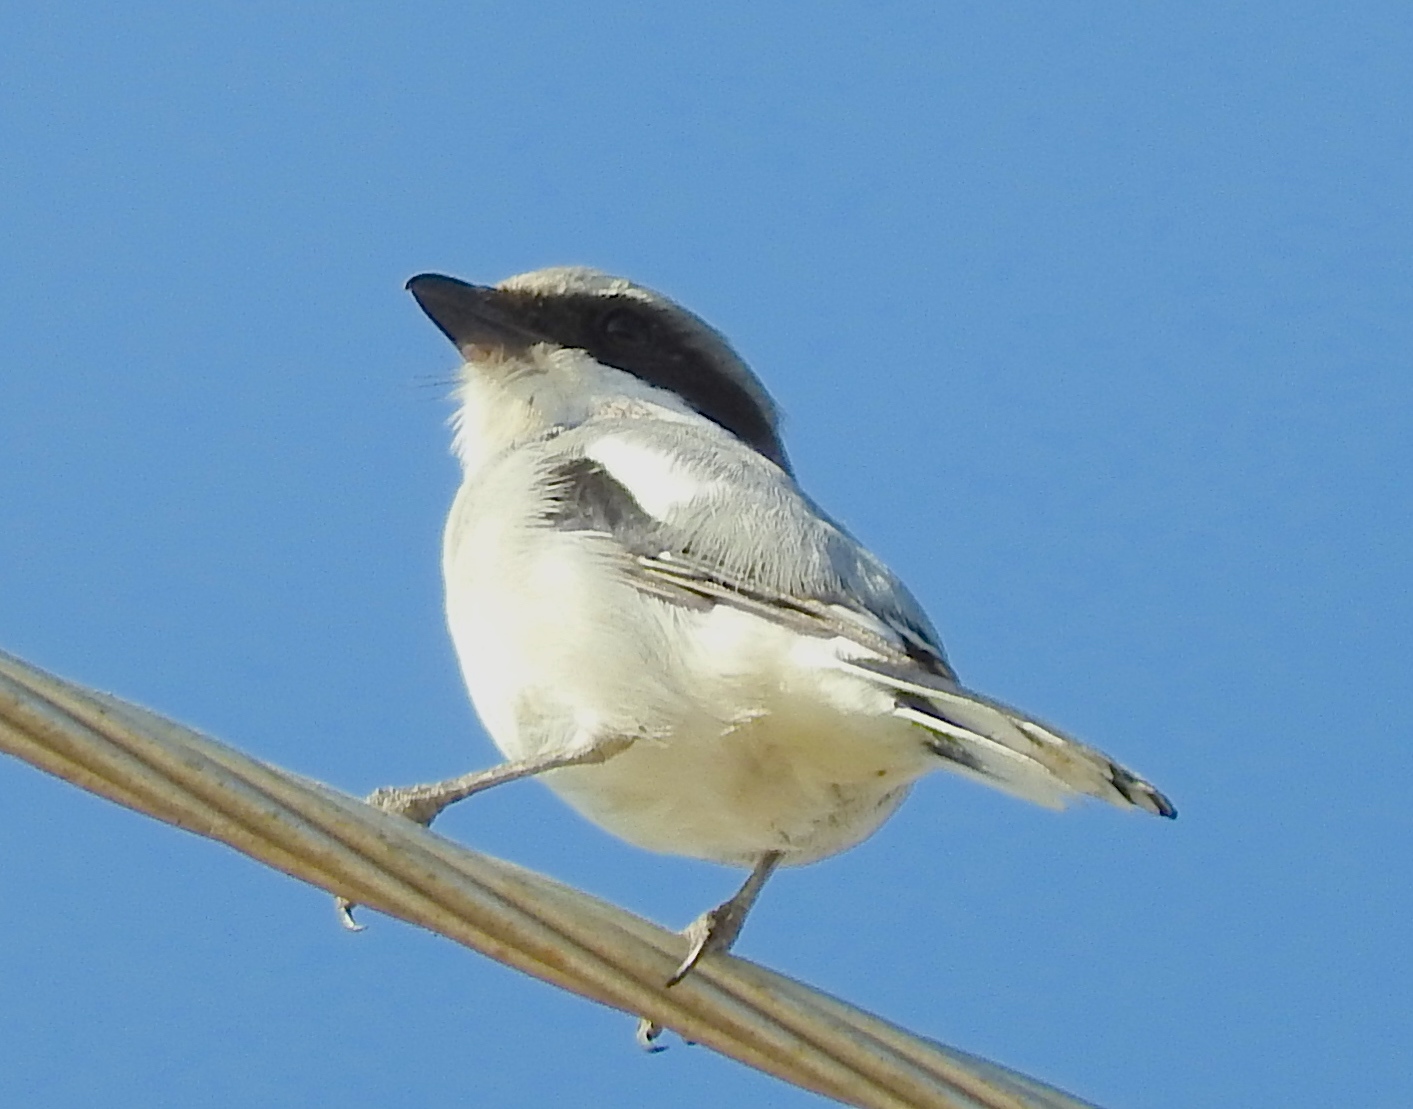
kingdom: Animalia
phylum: Chordata
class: Aves
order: Passeriformes
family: Laniidae
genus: Lanius
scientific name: Lanius ludovicianus
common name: Loggerhead shrike
